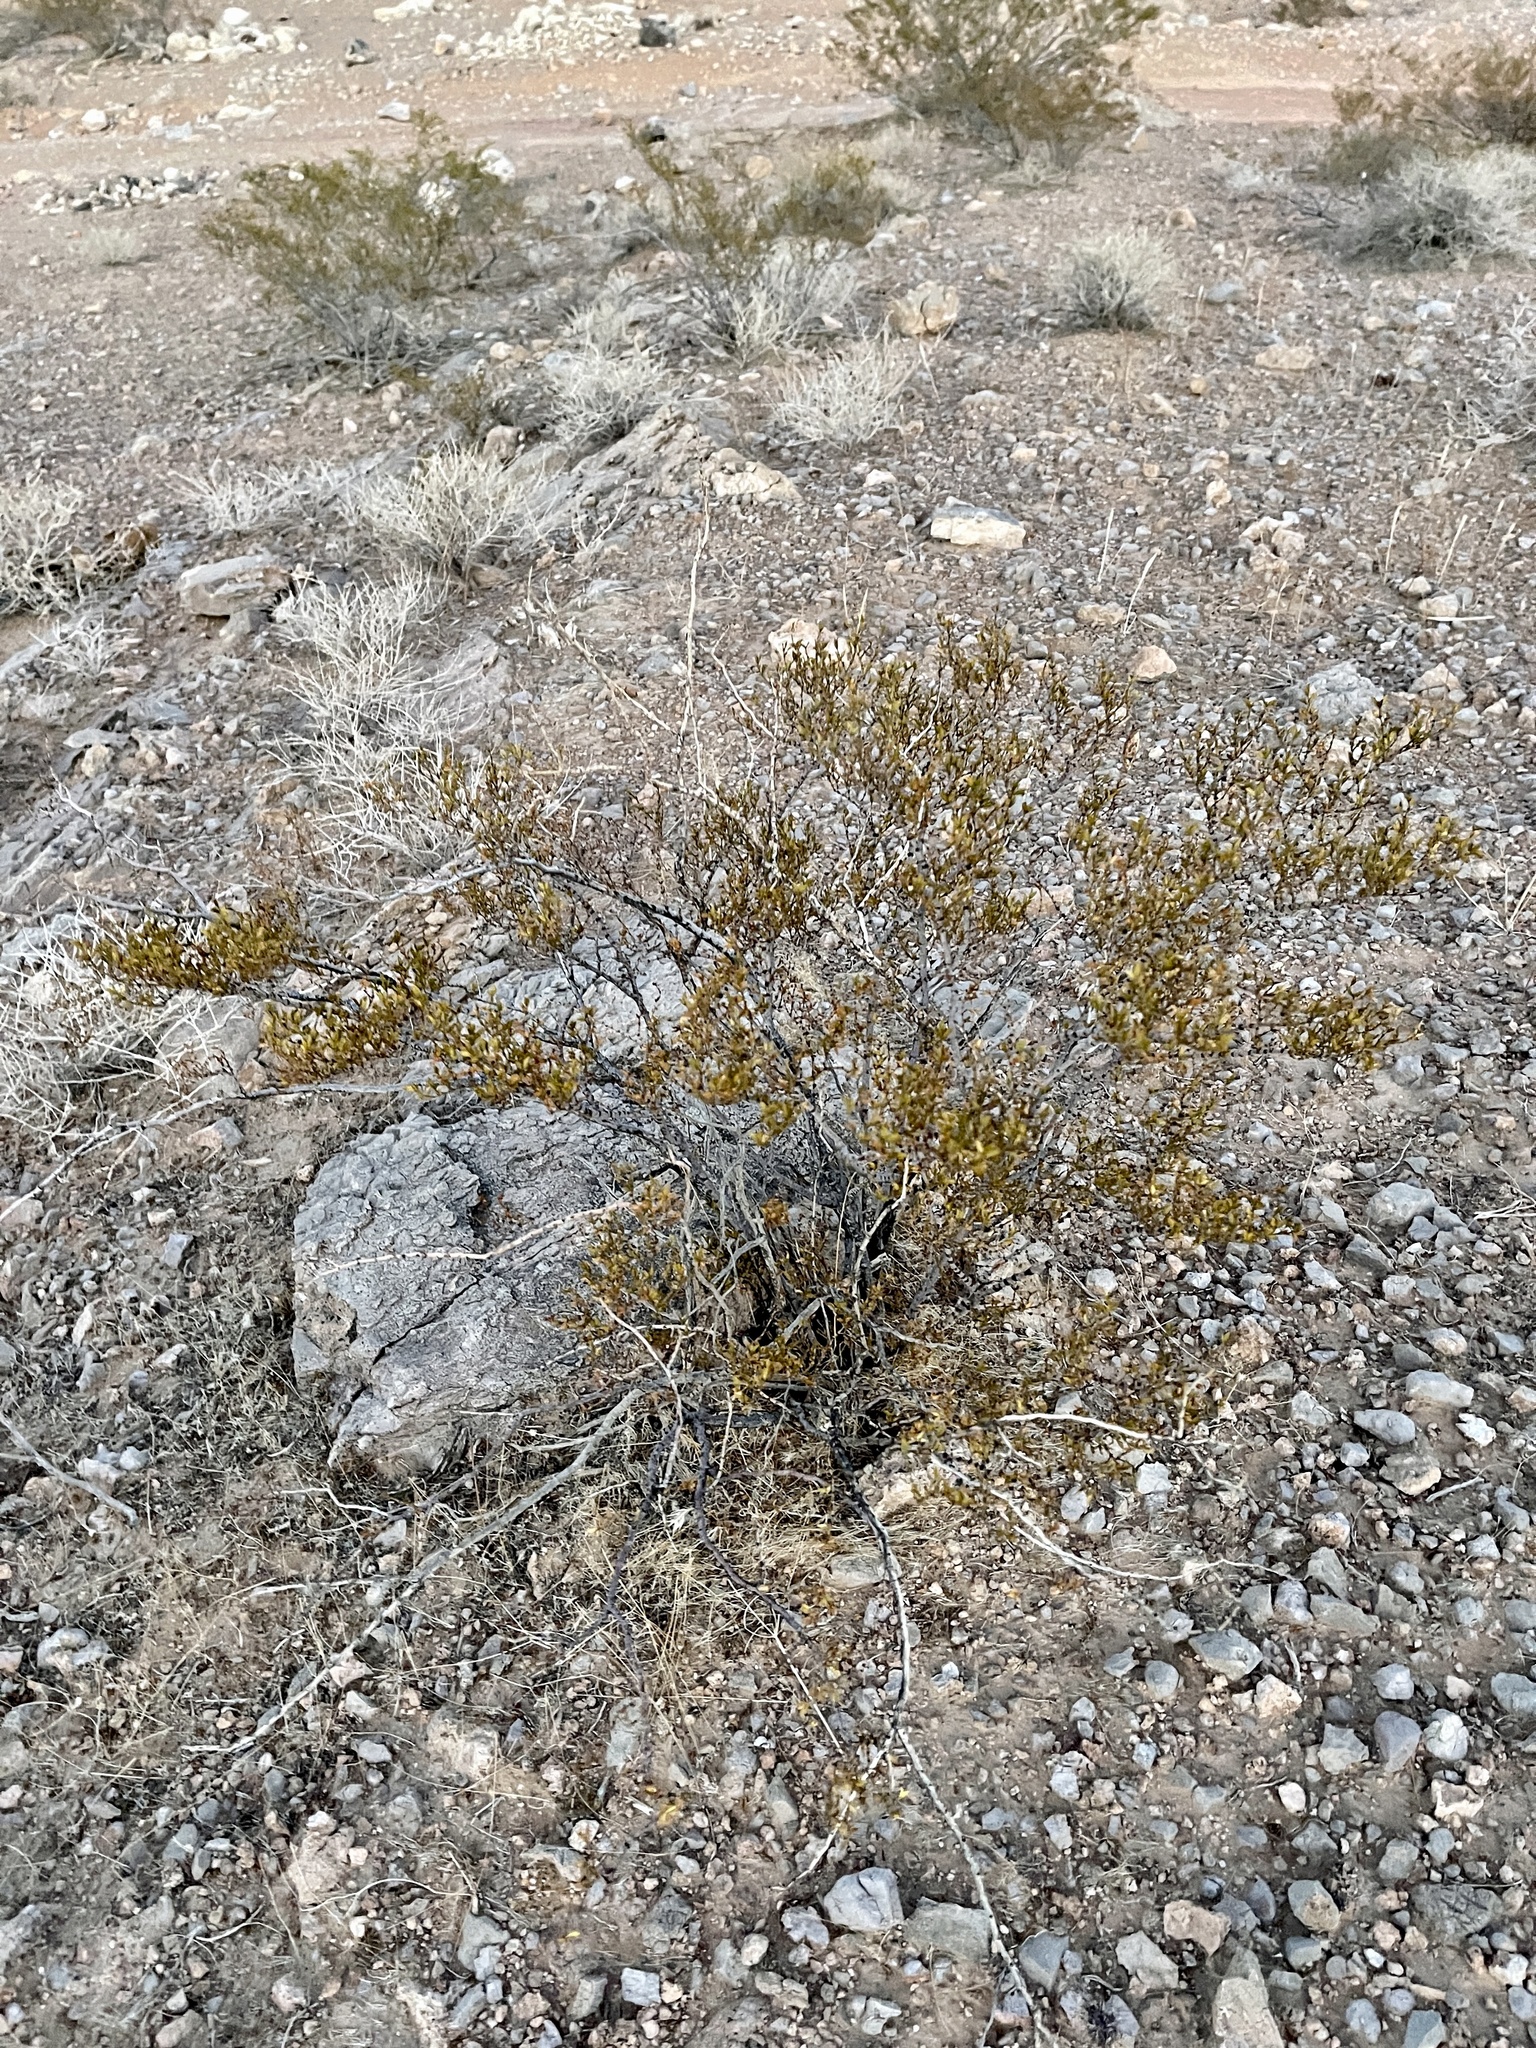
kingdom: Plantae
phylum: Tracheophyta
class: Magnoliopsida
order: Zygophyllales
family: Zygophyllaceae
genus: Larrea
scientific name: Larrea tridentata
